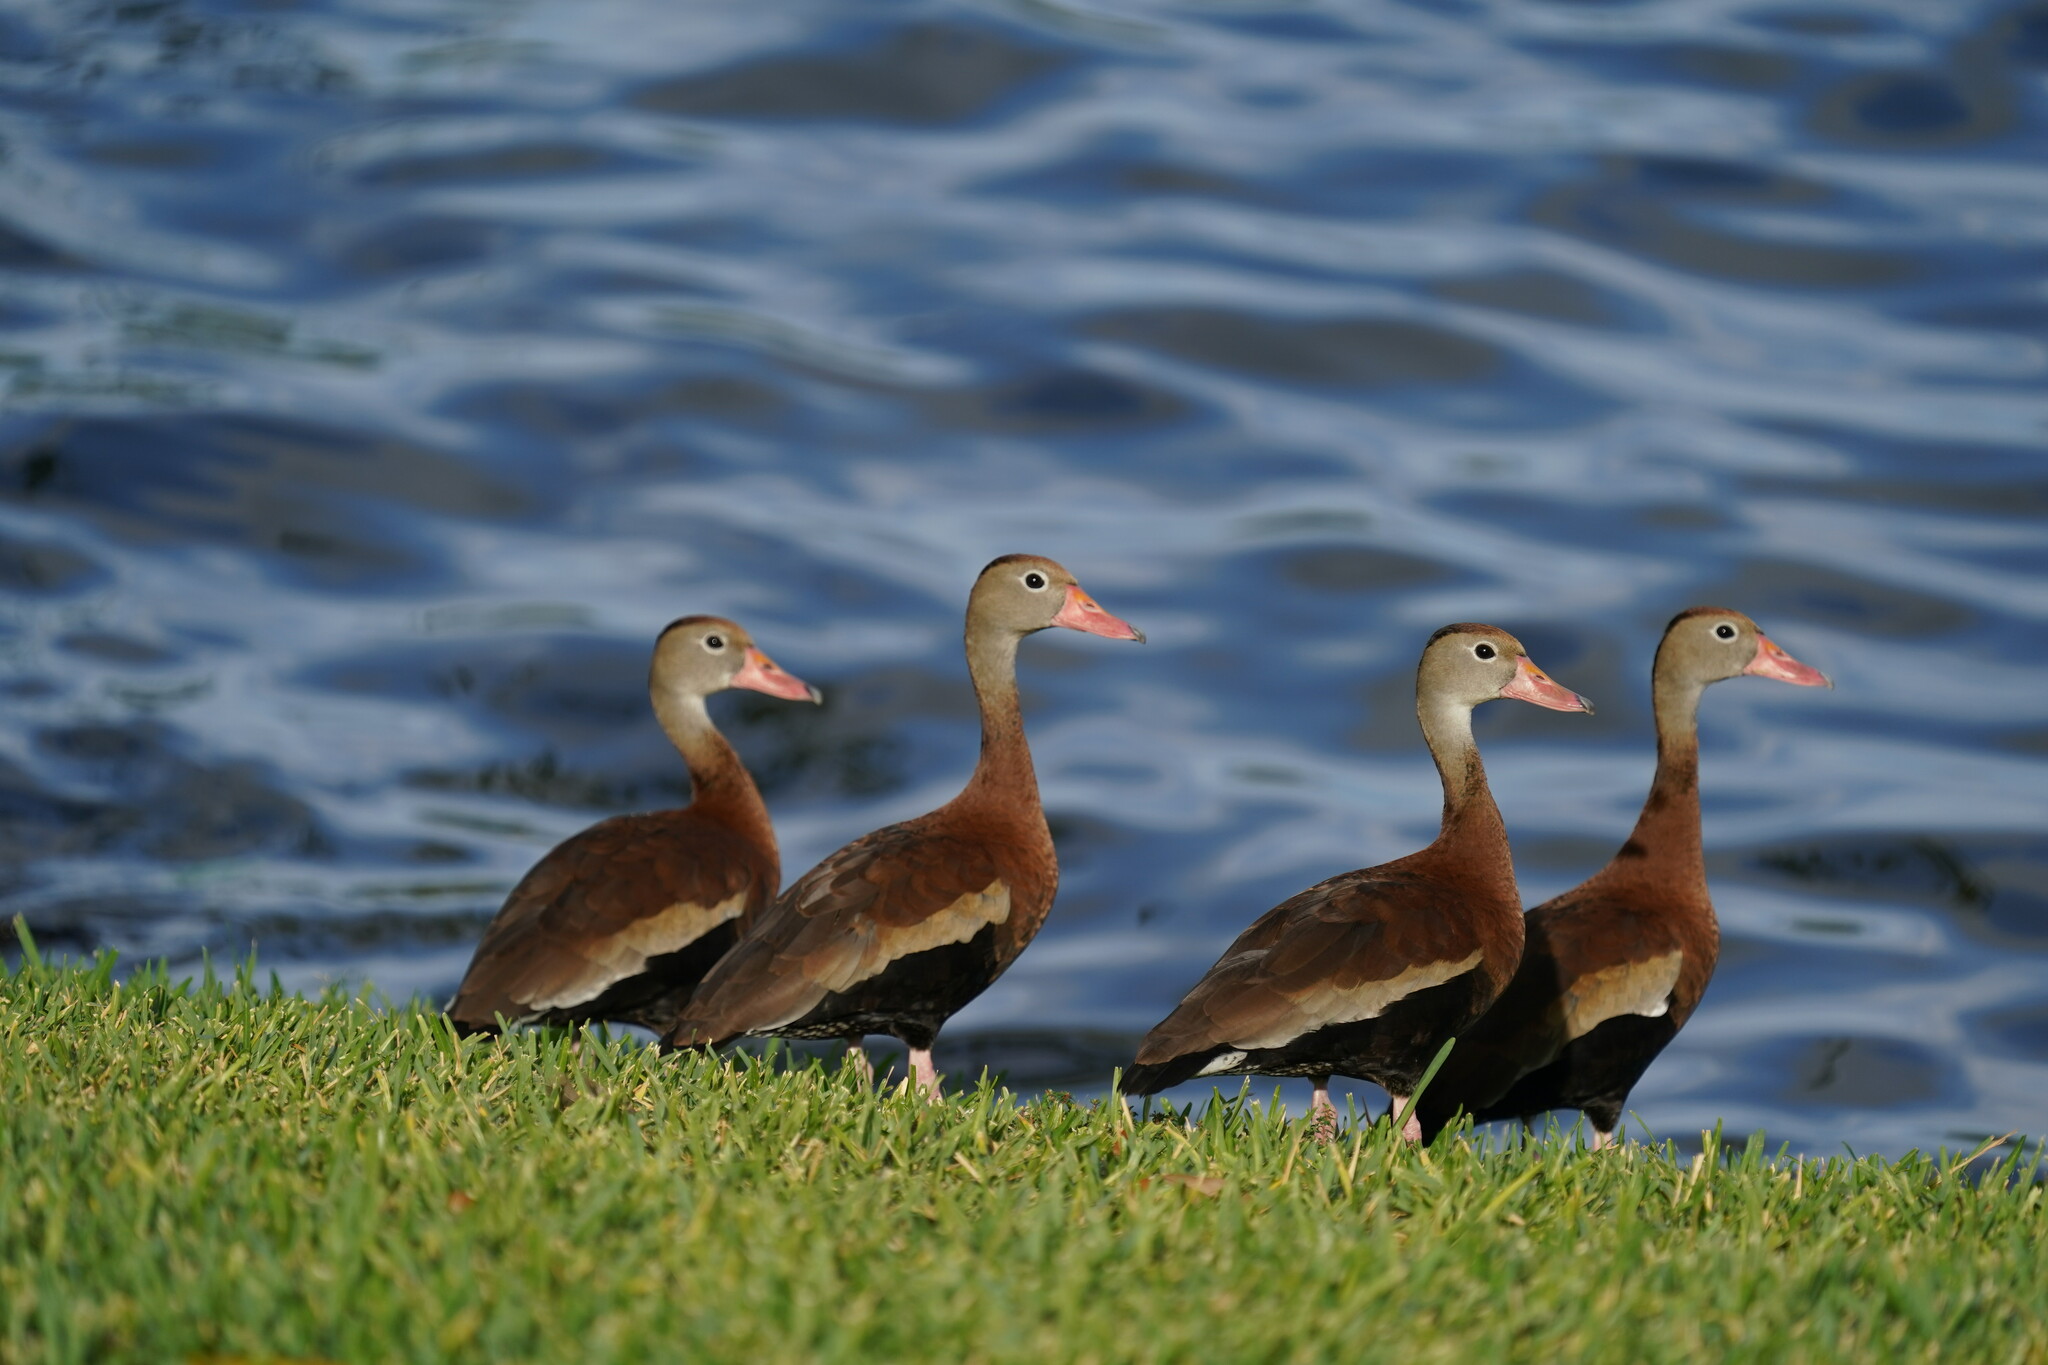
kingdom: Animalia
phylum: Chordata
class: Aves
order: Anseriformes
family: Anatidae
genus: Dendrocygna
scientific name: Dendrocygna autumnalis
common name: Black-bellied whistling duck
